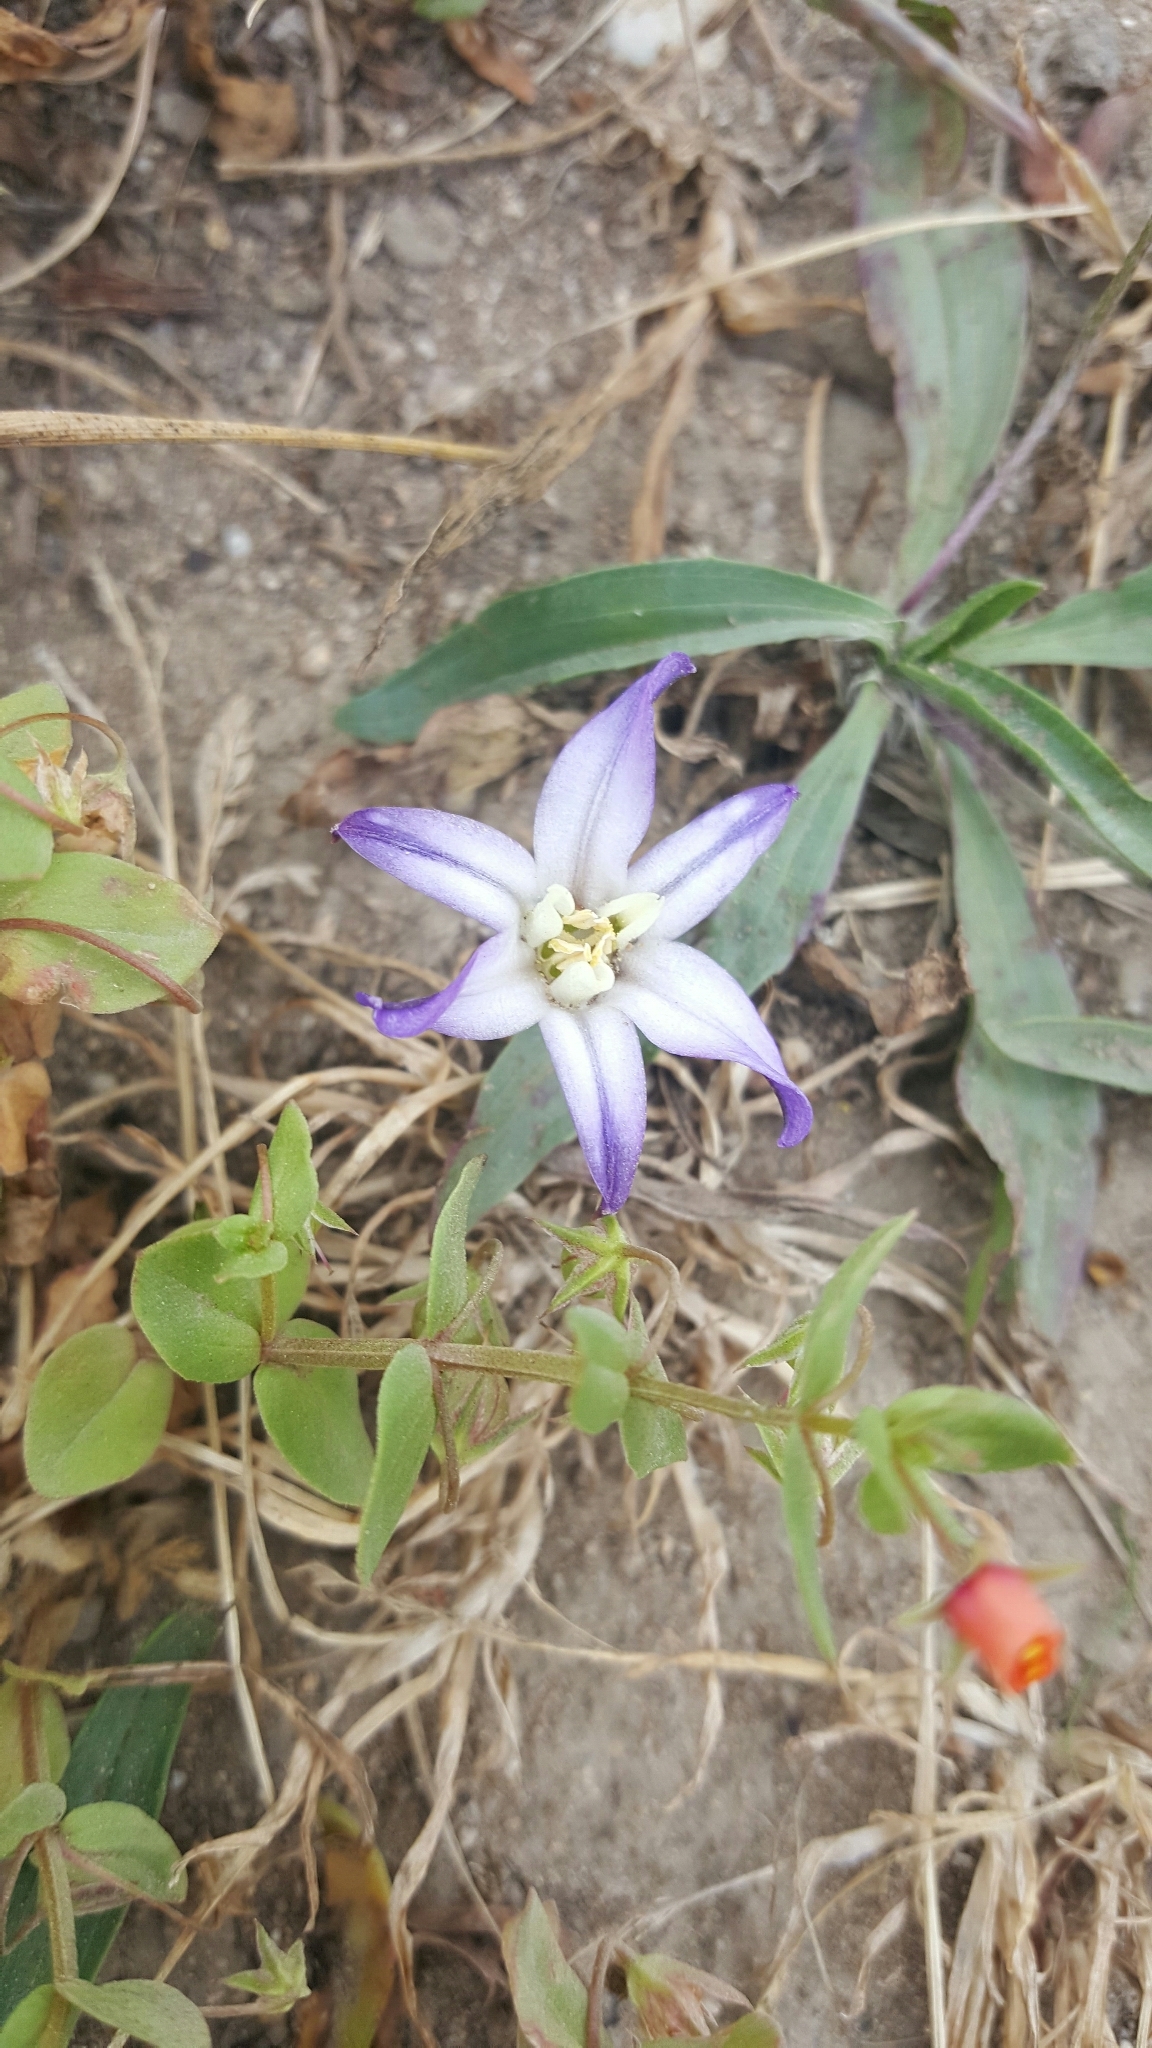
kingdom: Plantae
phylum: Tracheophyta
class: Liliopsida
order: Asparagales
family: Asparagaceae
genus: Brodiaea
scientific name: Brodiaea terrestris
